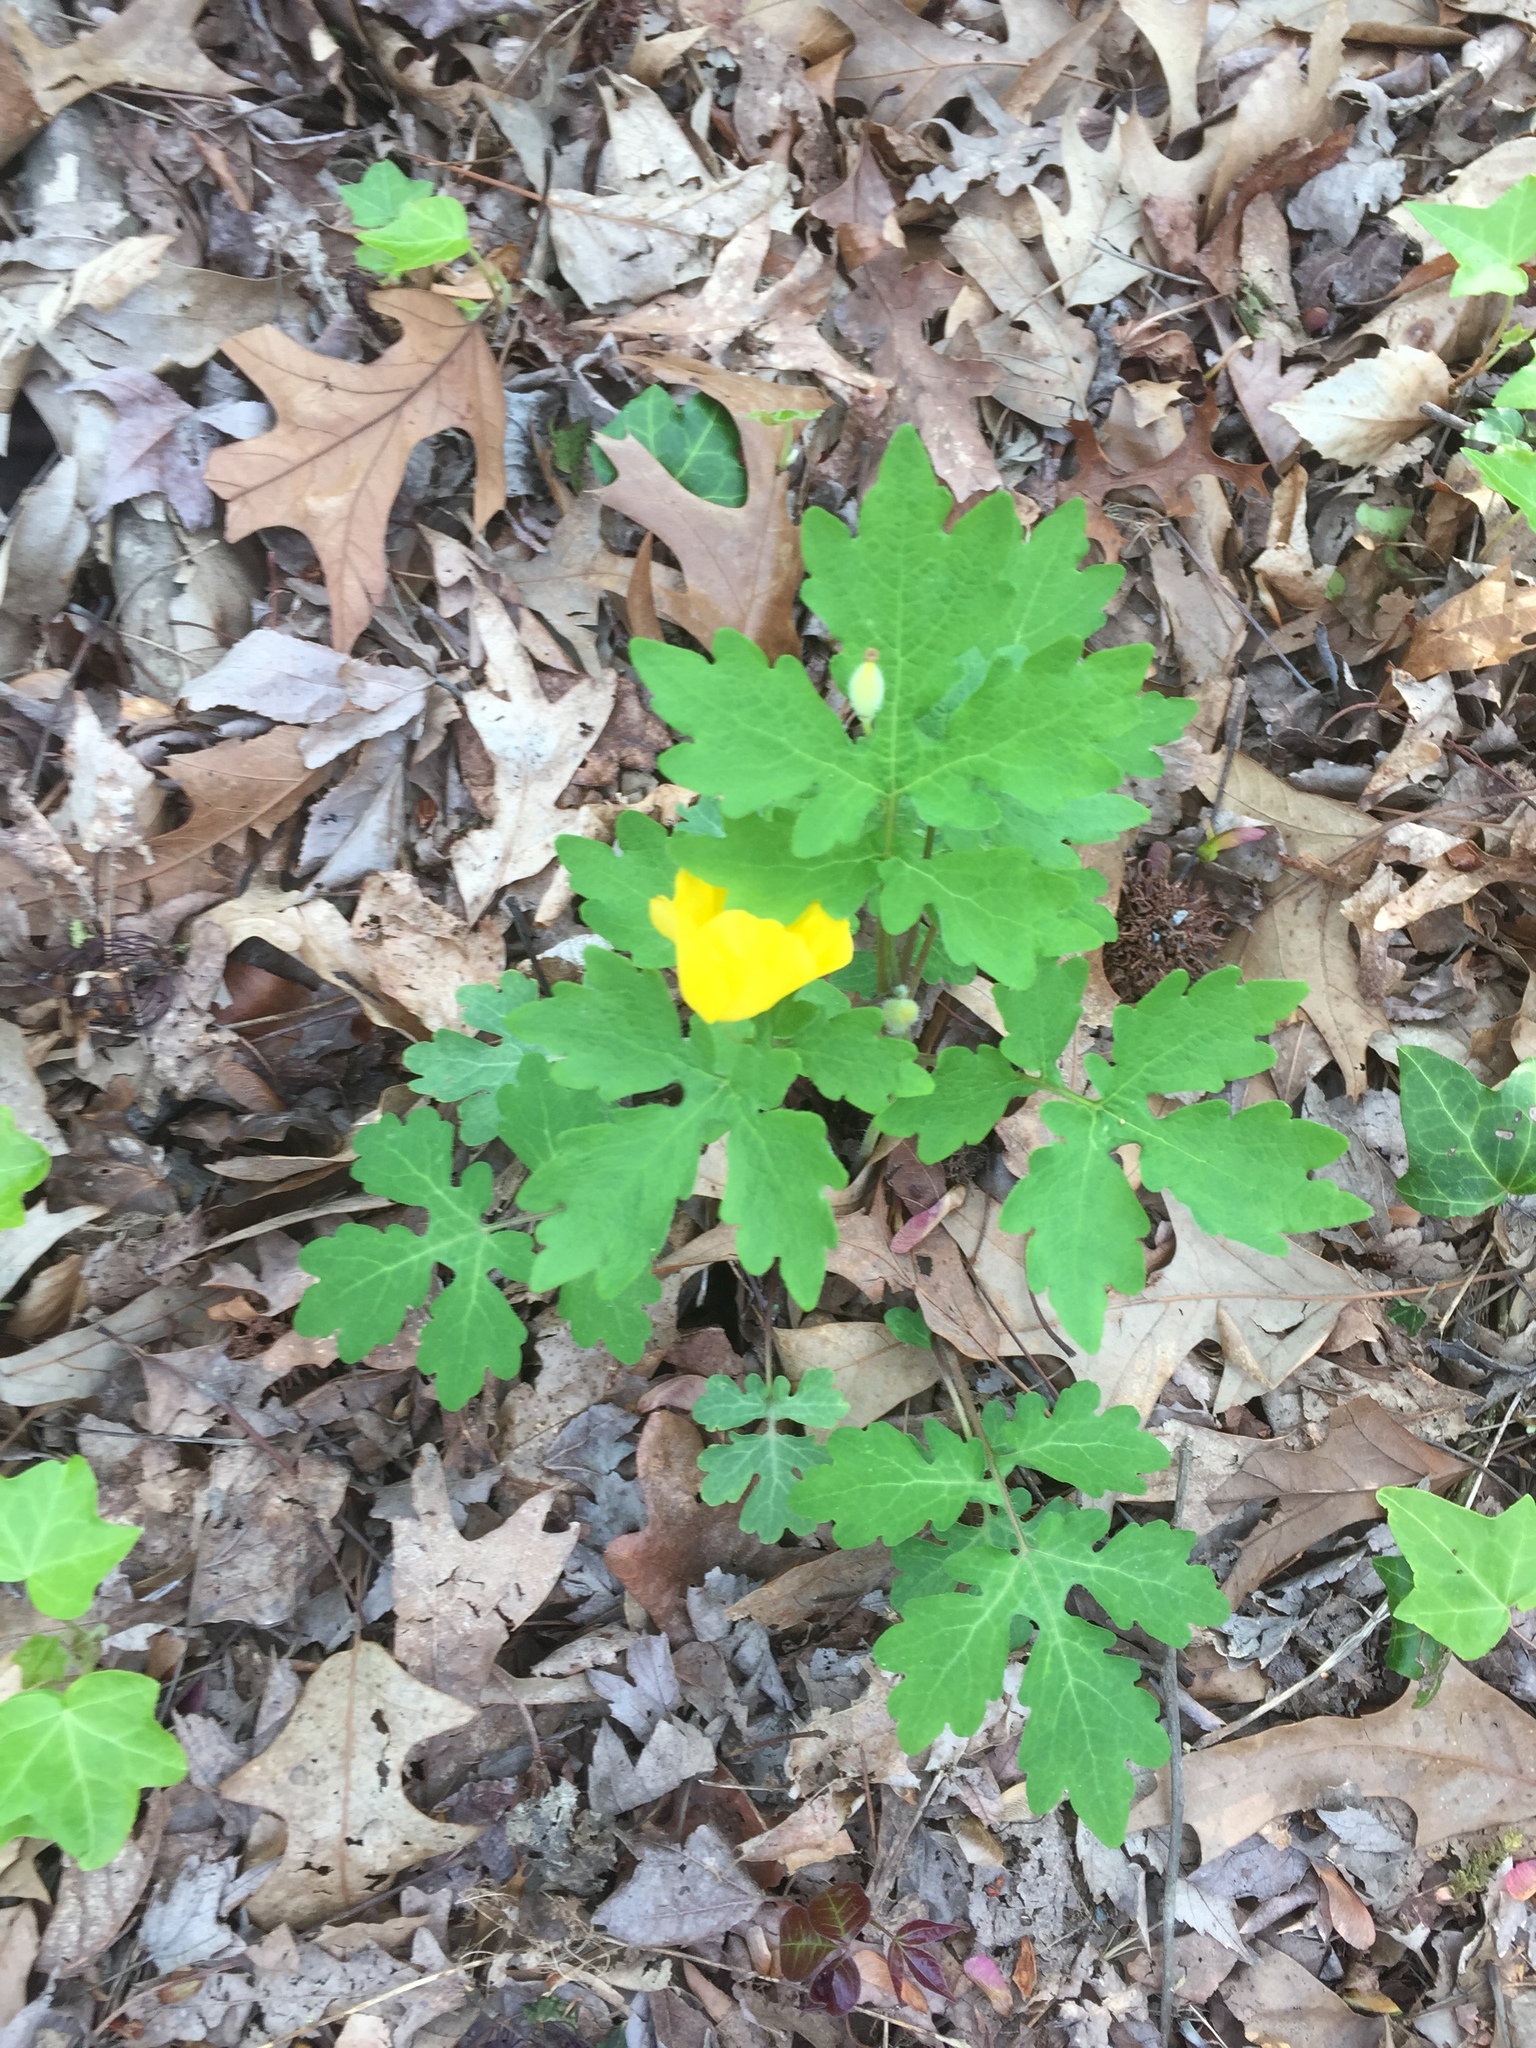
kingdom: Plantae
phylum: Tracheophyta
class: Magnoliopsida
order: Ranunculales
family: Papaveraceae
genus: Stylophorum
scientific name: Stylophorum diphyllum
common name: Celandine poppy
